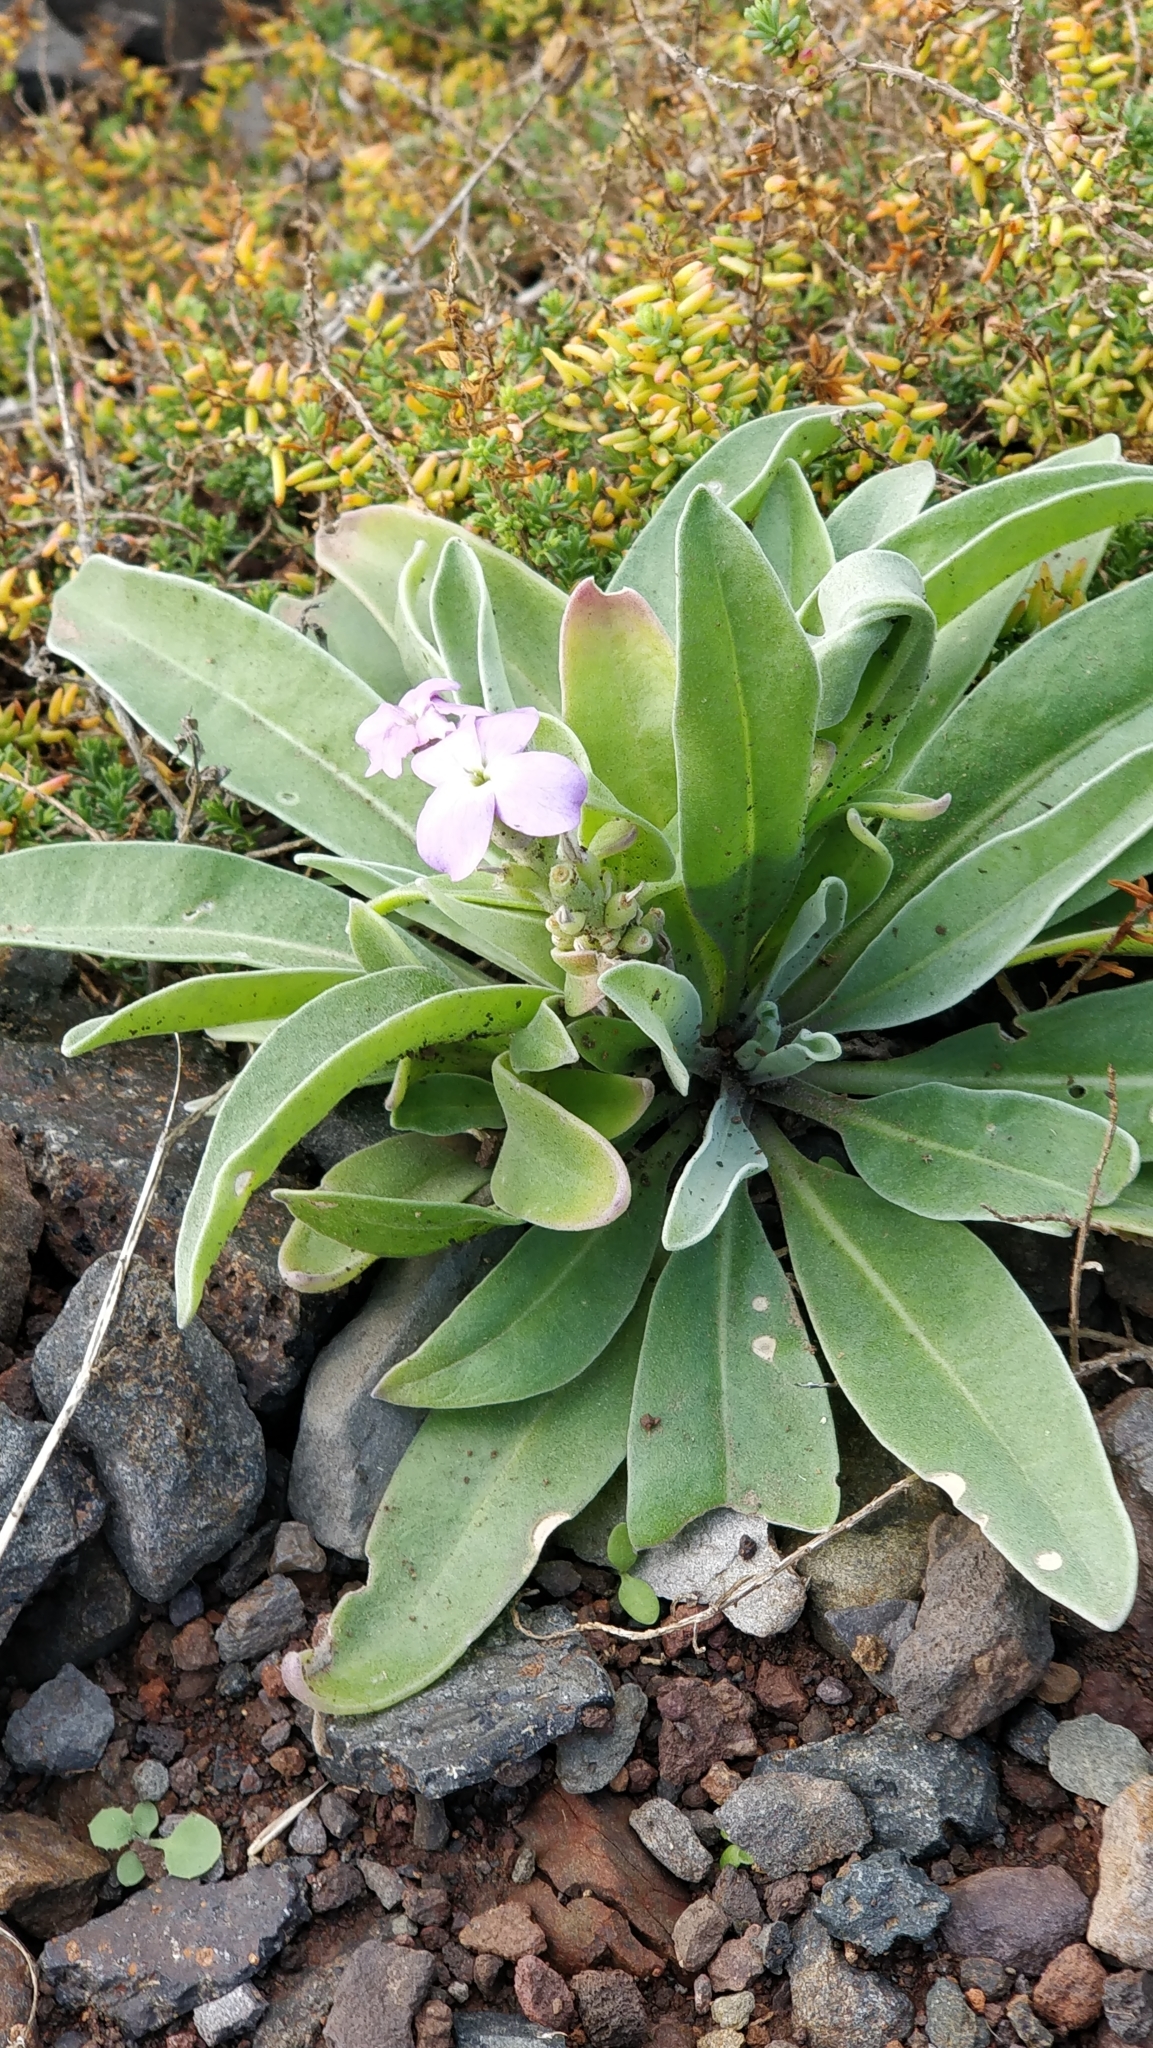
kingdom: Plantae
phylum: Tracheophyta
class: Magnoliopsida
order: Brassicales
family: Brassicaceae
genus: Matthiola
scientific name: Matthiola maderensis
